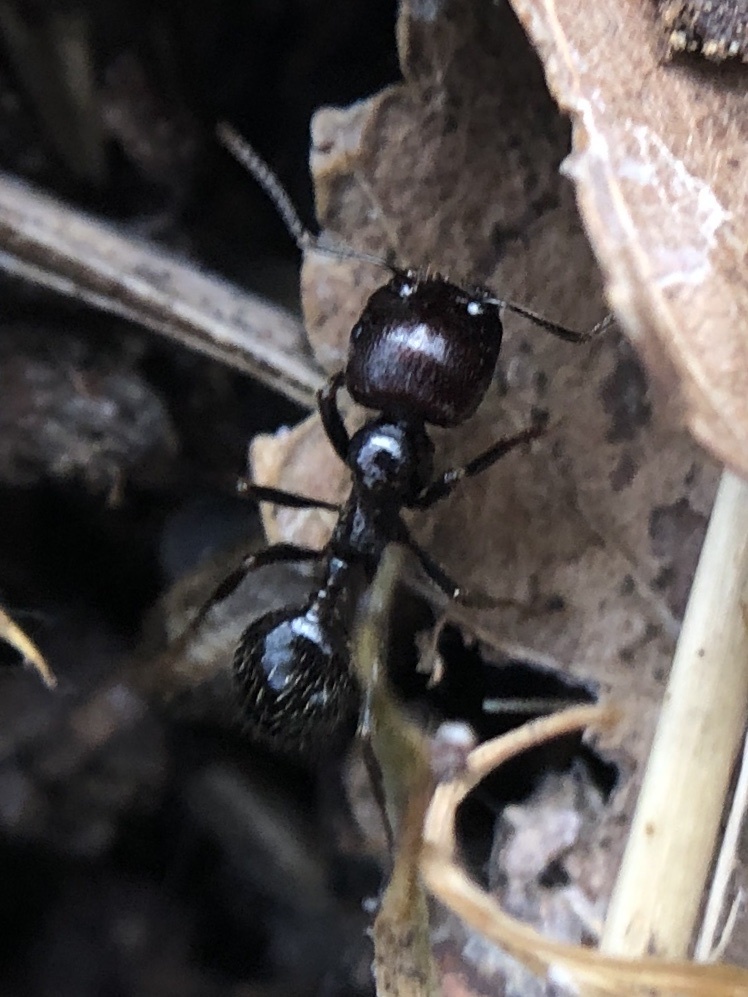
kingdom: Animalia
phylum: Arthropoda
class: Insecta
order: Hymenoptera
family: Formicidae
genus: Messor
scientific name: Messor barbarus
